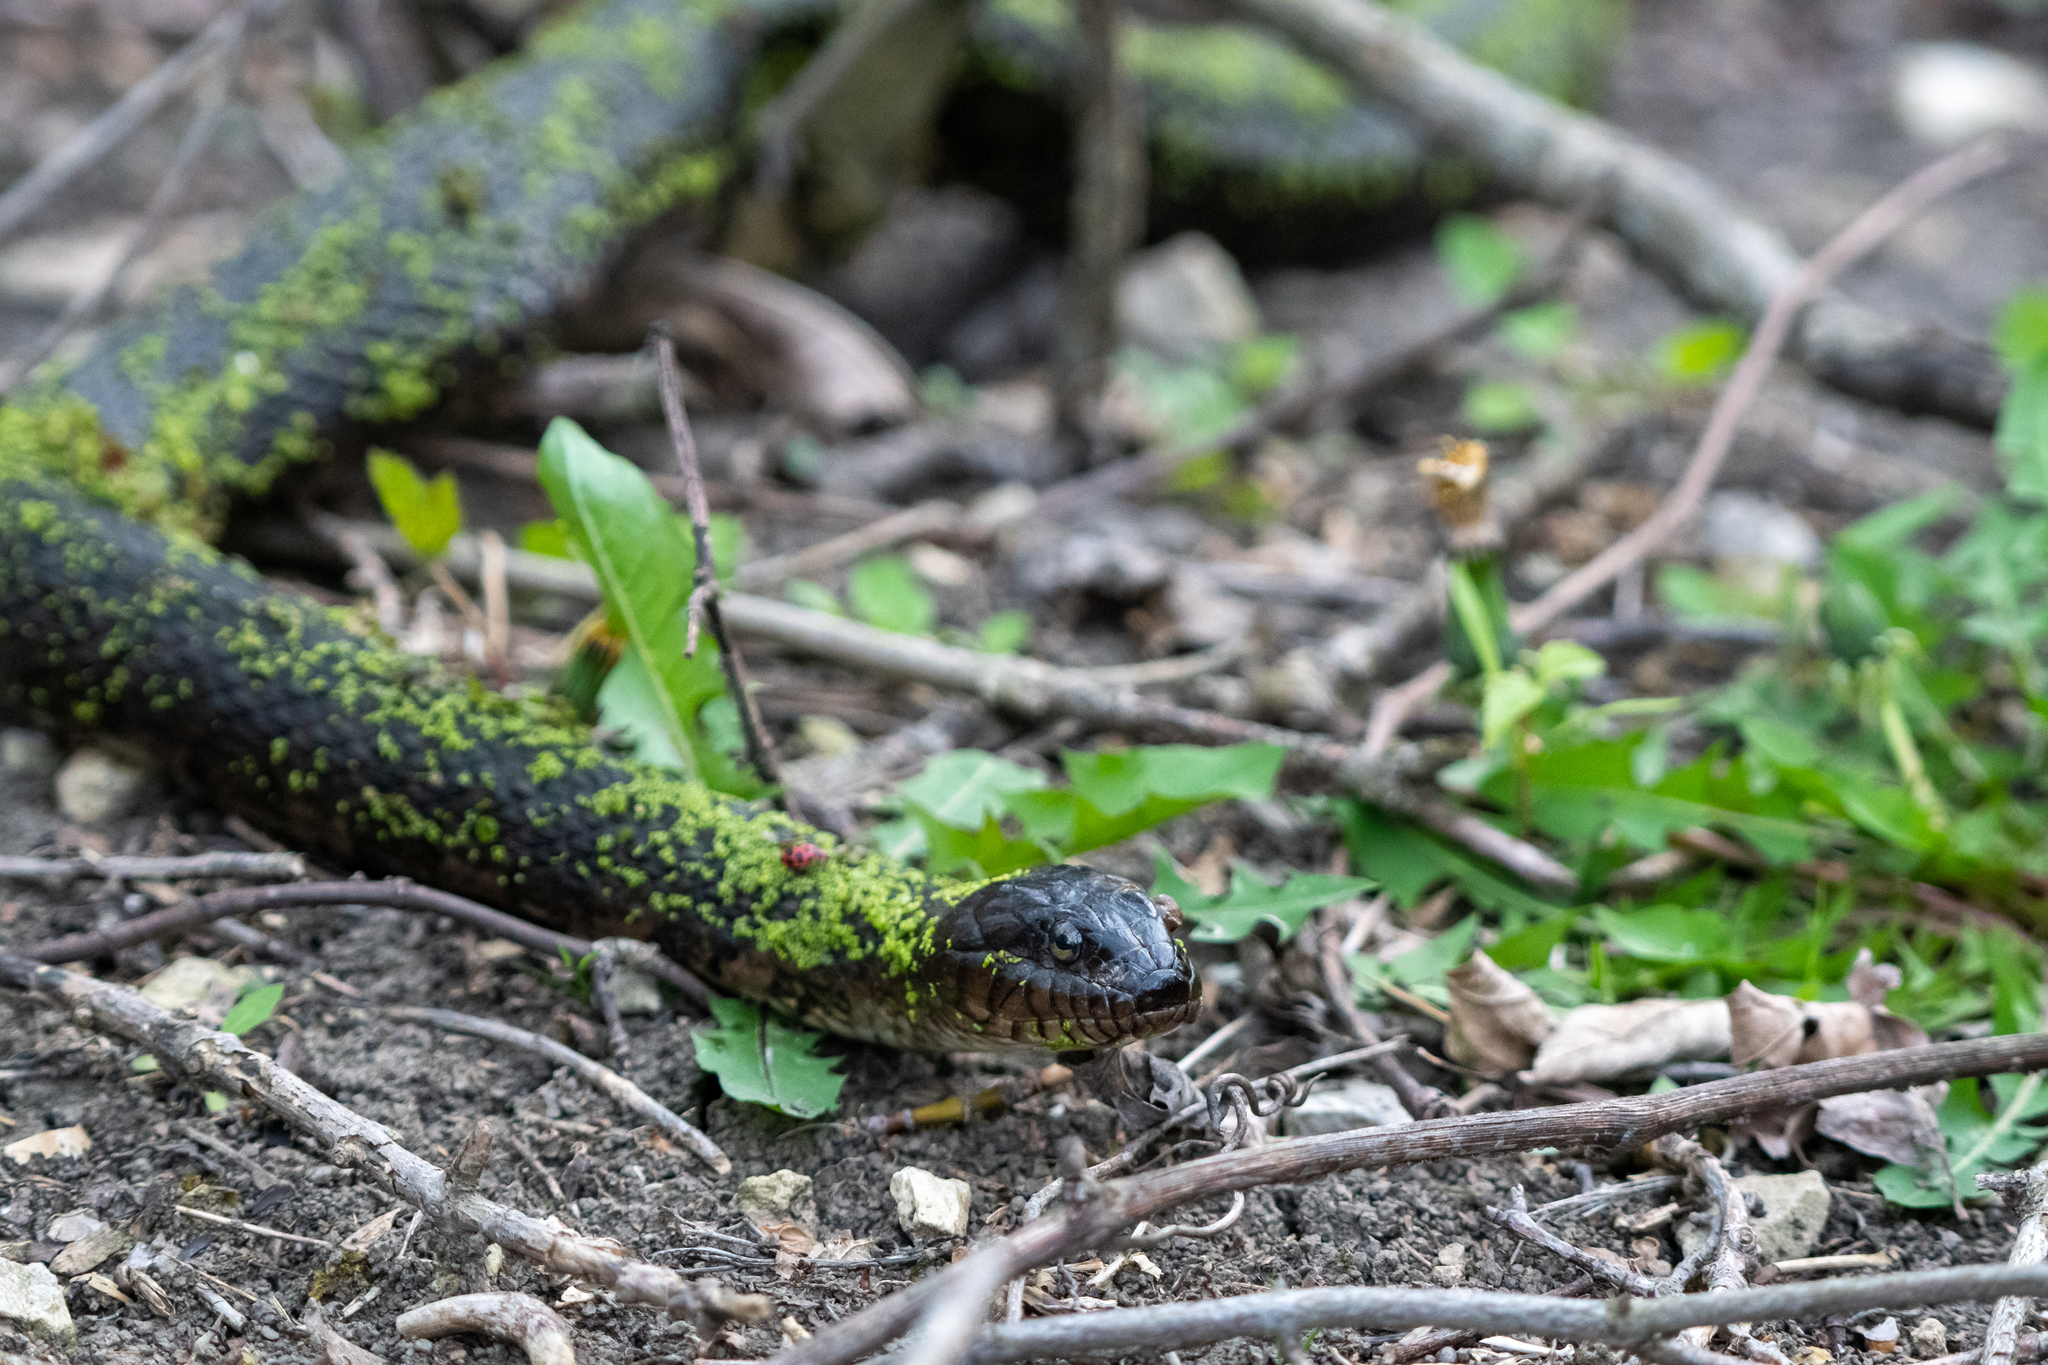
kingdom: Animalia
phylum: Chordata
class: Squamata
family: Colubridae
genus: Nerodia
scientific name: Nerodia sipedon
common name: Northern water snake
